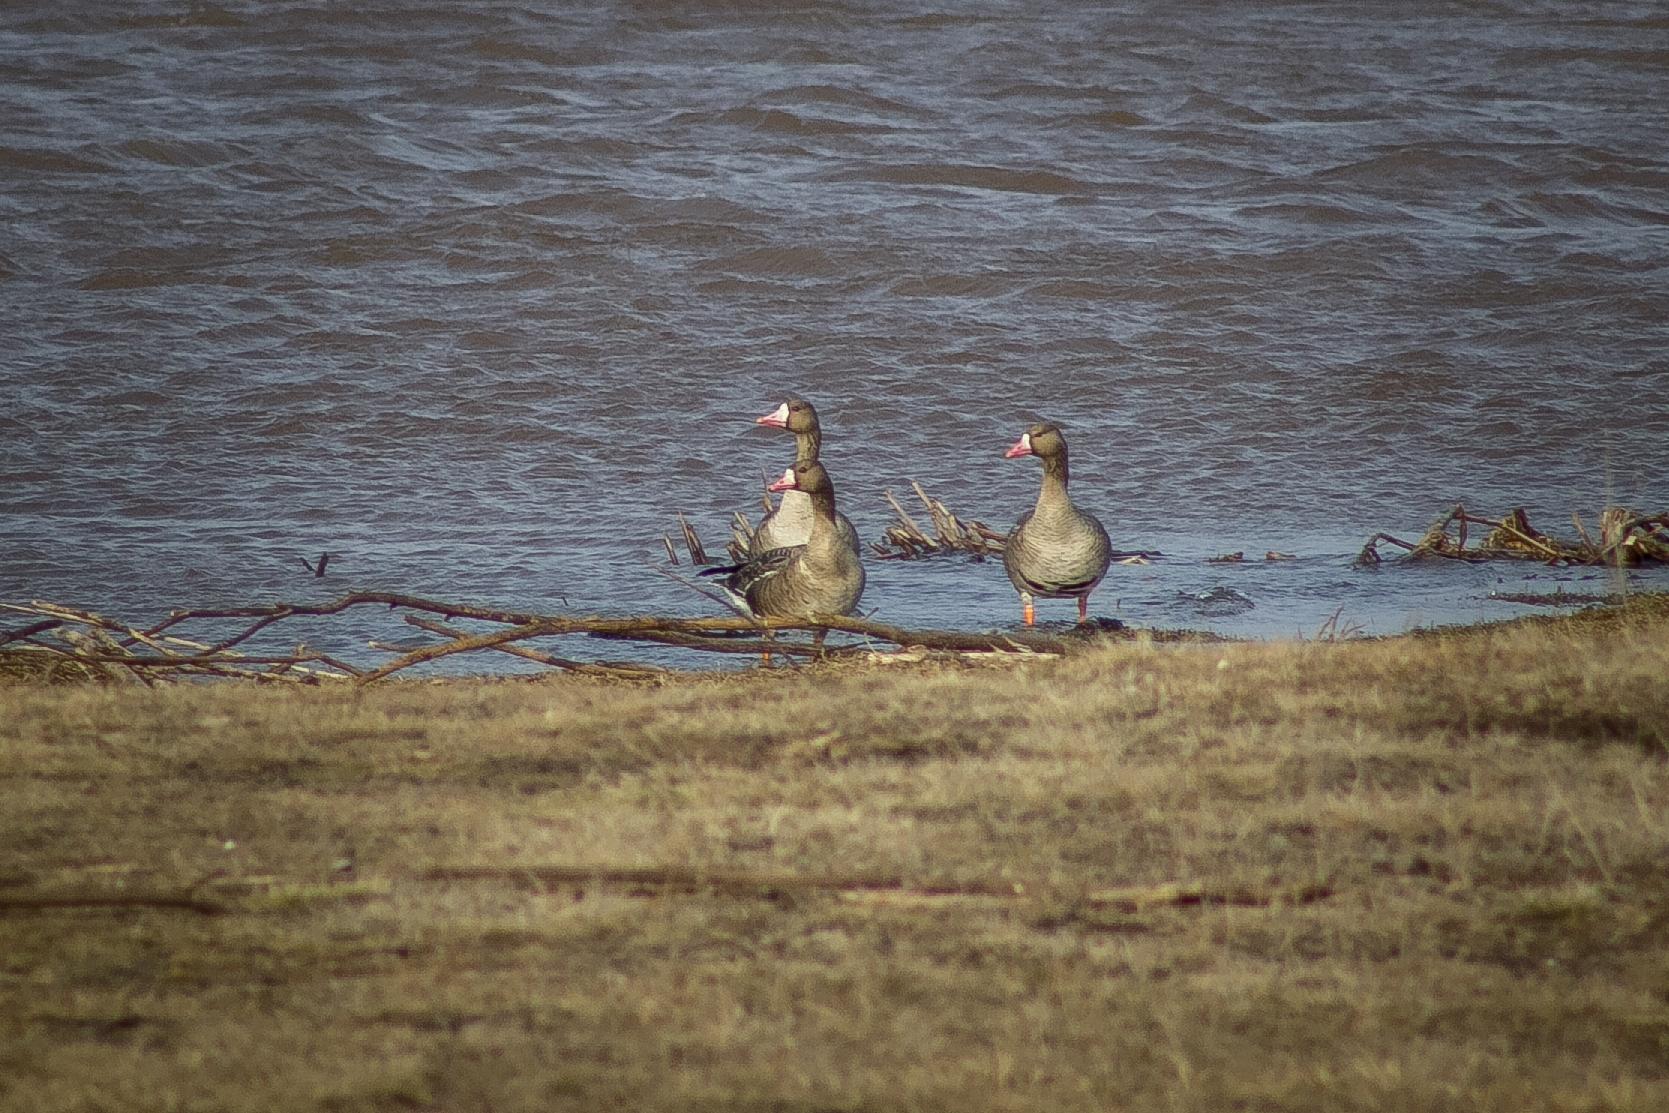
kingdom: Animalia
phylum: Chordata
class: Aves
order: Anseriformes
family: Anatidae
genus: Anser
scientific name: Anser albifrons
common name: Greater white-fronted goose
